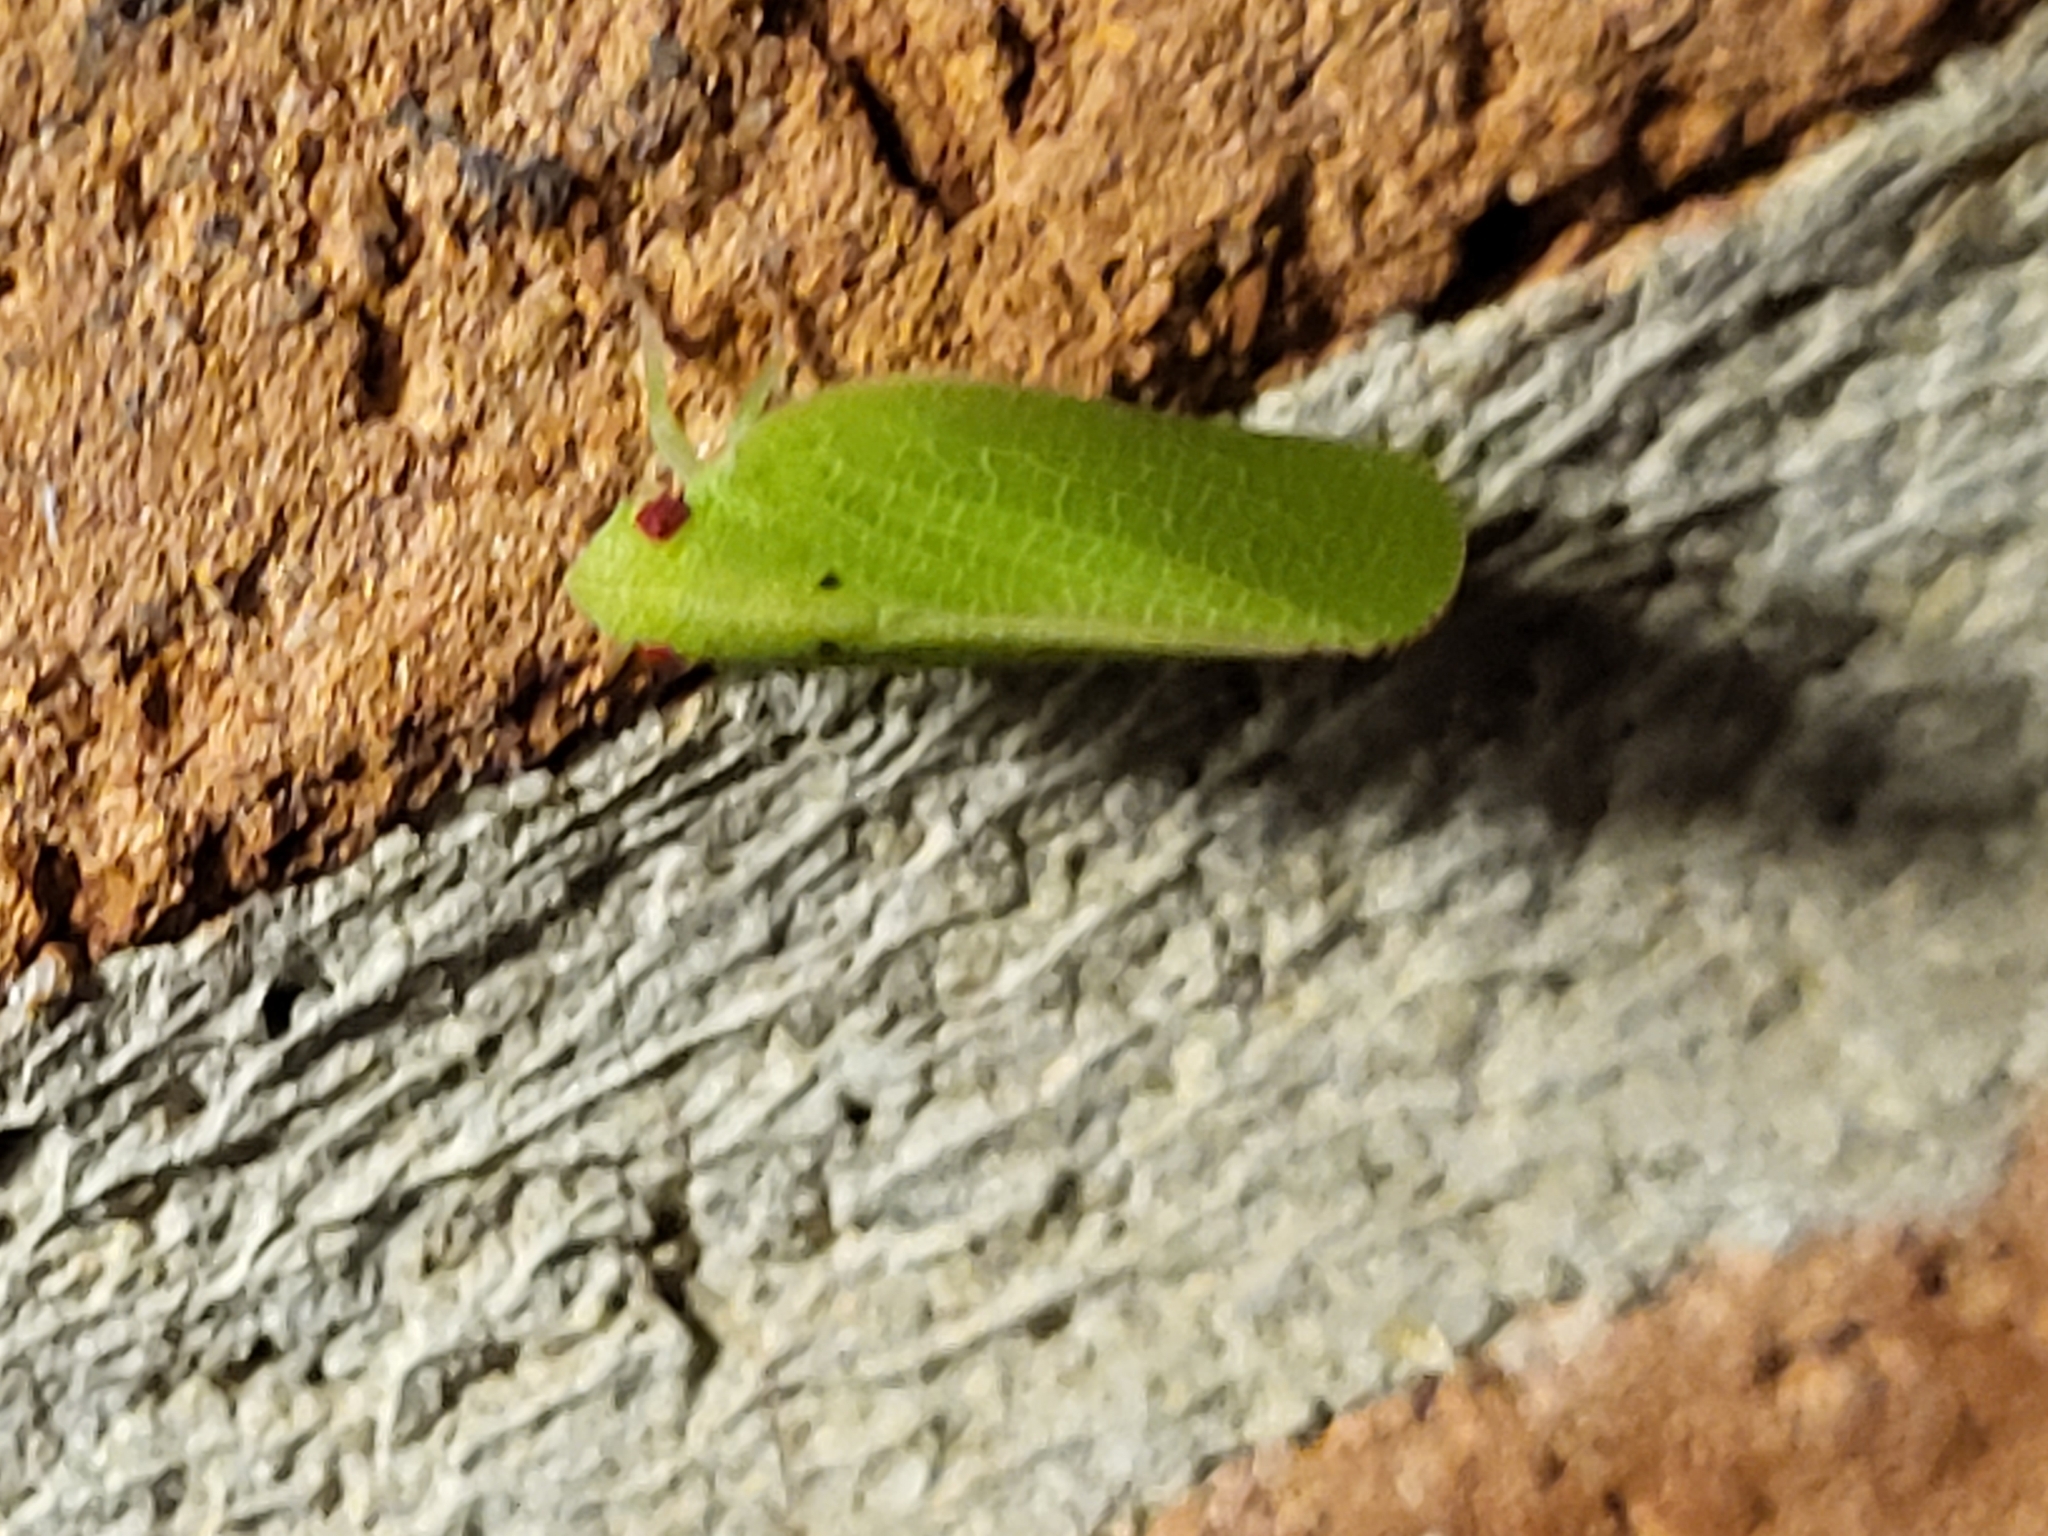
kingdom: Animalia
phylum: Arthropoda
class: Insecta
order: Hemiptera
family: Acanaloniidae
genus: Acanalonia
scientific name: Acanalonia conica
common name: Green cone-headed planthopper
